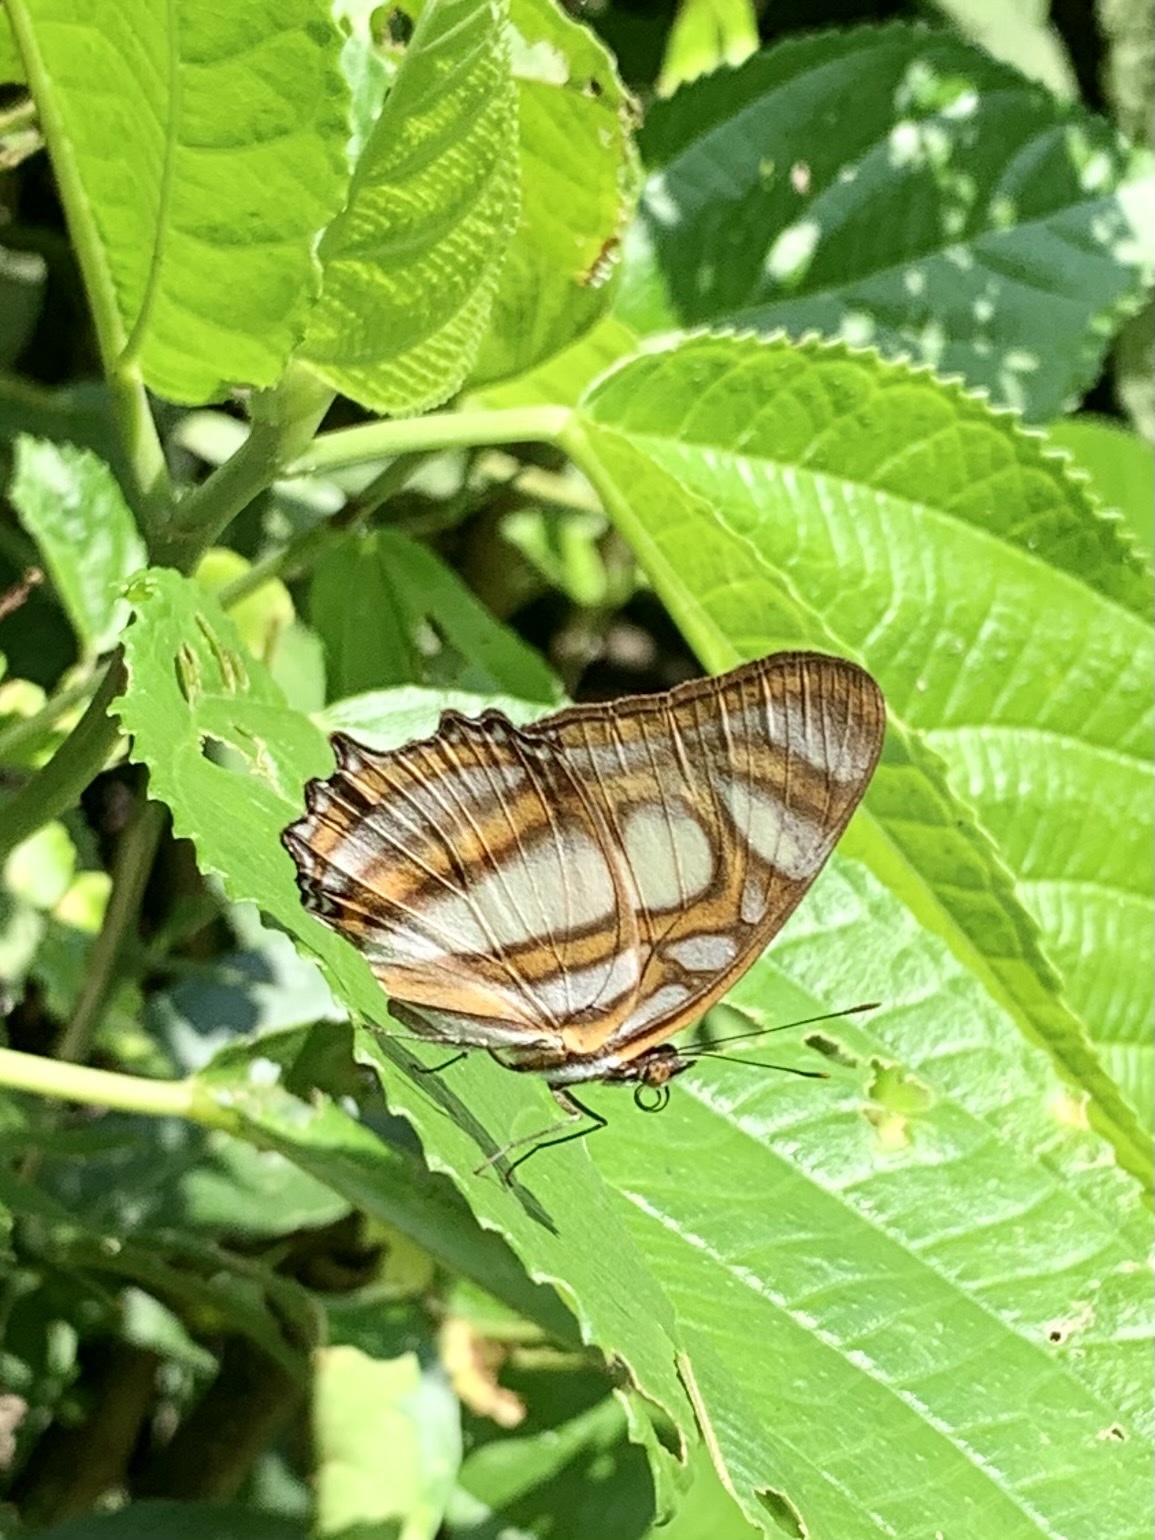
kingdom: Animalia
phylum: Arthropoda
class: Insecta
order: Lepidoptera
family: Nymphalidae
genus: Metamorpha
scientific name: Metamorpha elissa
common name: Elissa page
